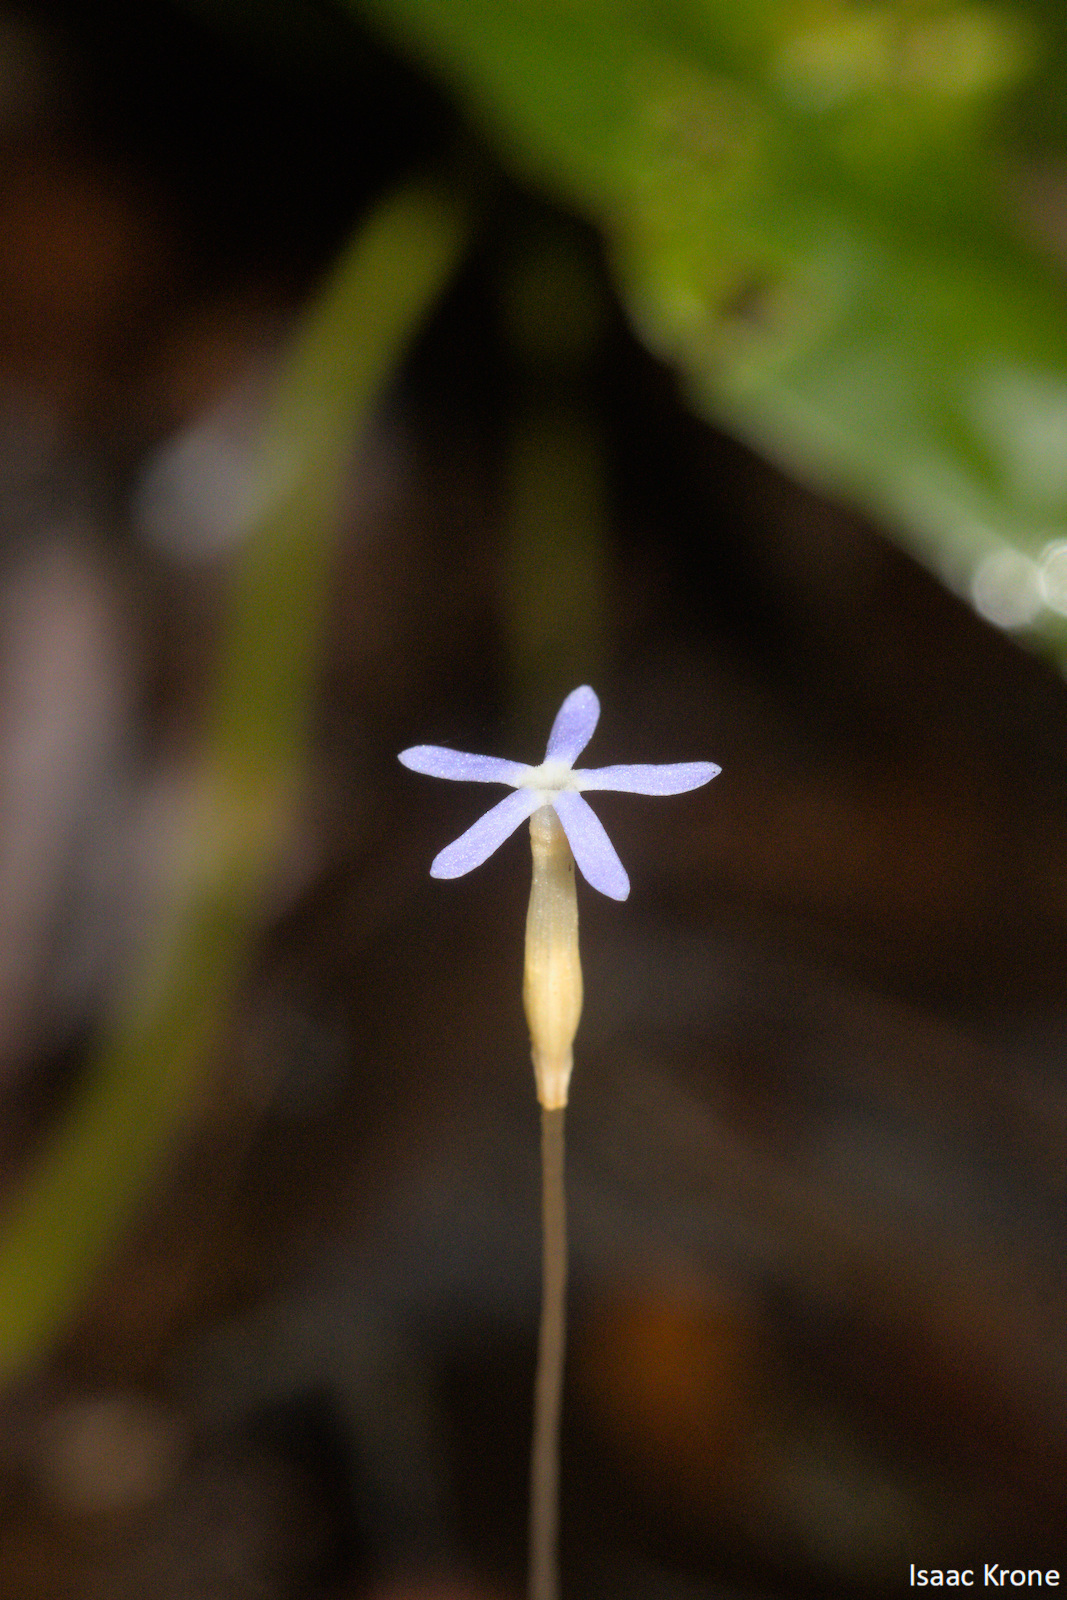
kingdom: Plantae
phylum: Tracheophyta
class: Magnoliopsida
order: Gentianales
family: Gentianaceae
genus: Voyria
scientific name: Voyria tenella
